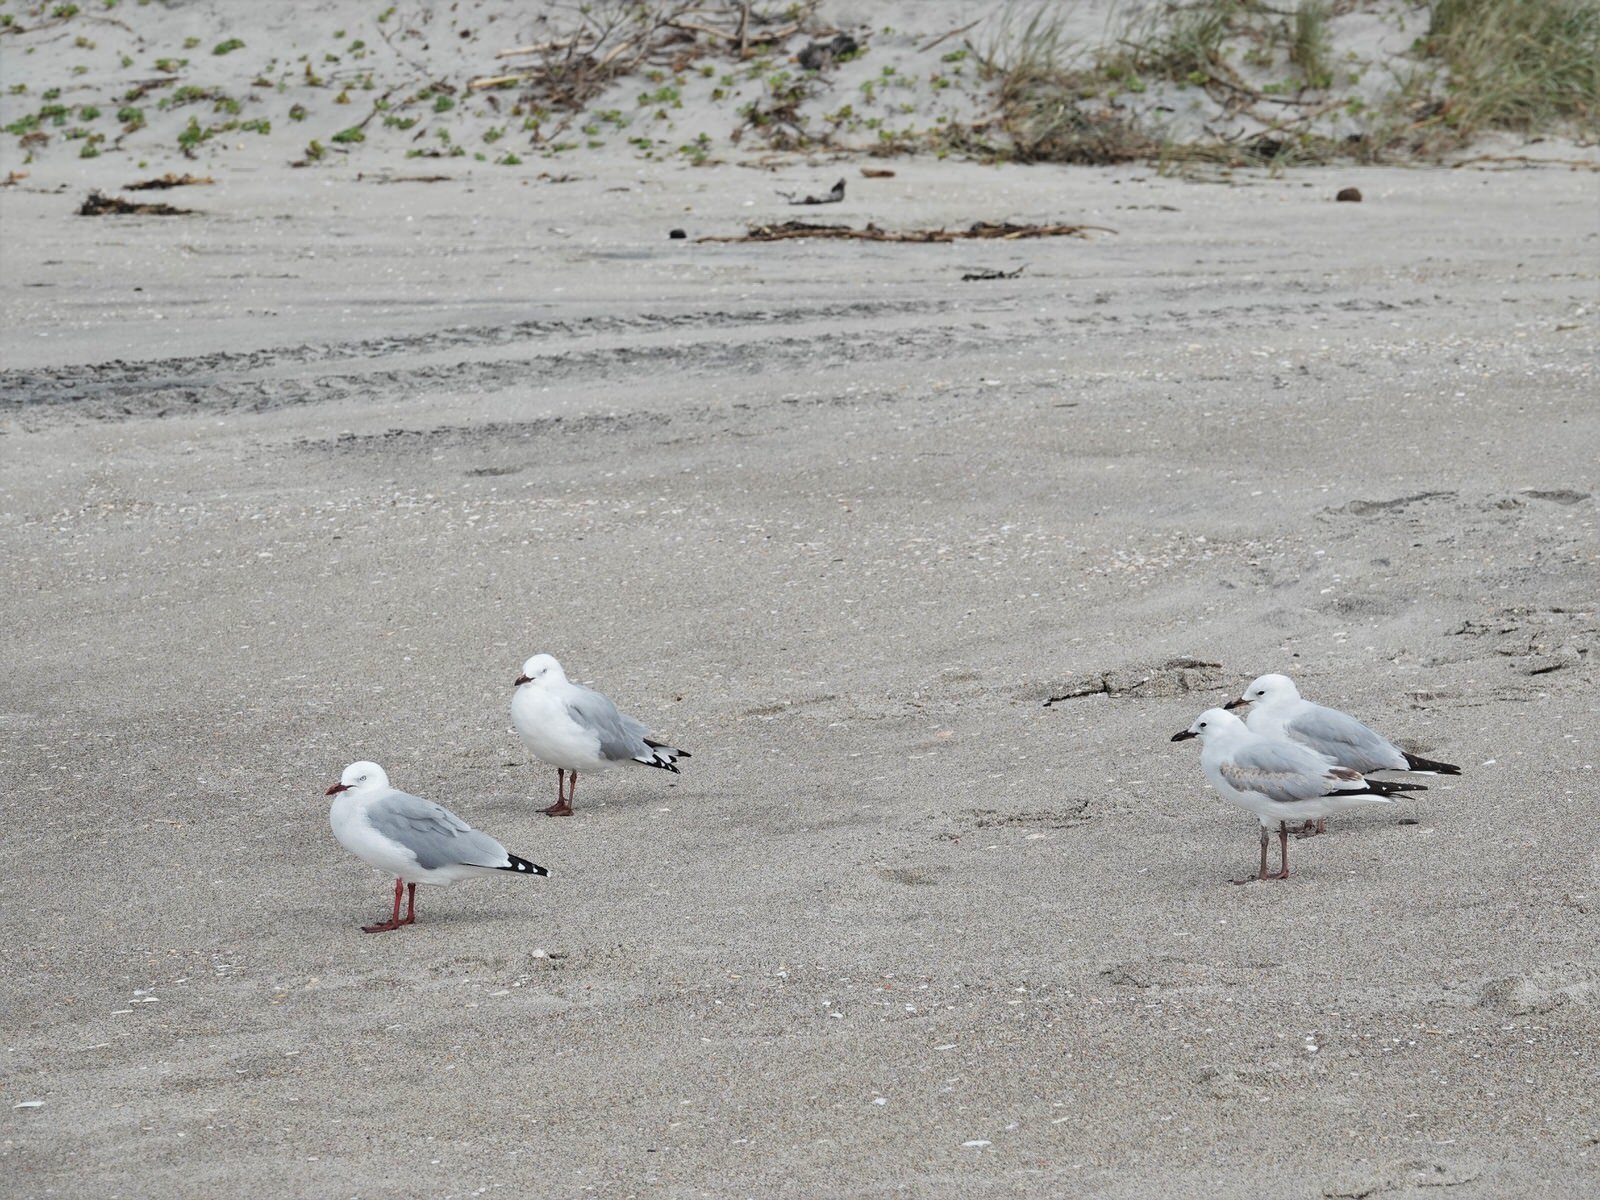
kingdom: Animalia
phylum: Chordata
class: Aves
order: Charadriiformes
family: Laridae
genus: Chroicocephalus
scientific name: Chroicocephalus novaehollandiae
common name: Silver gull
